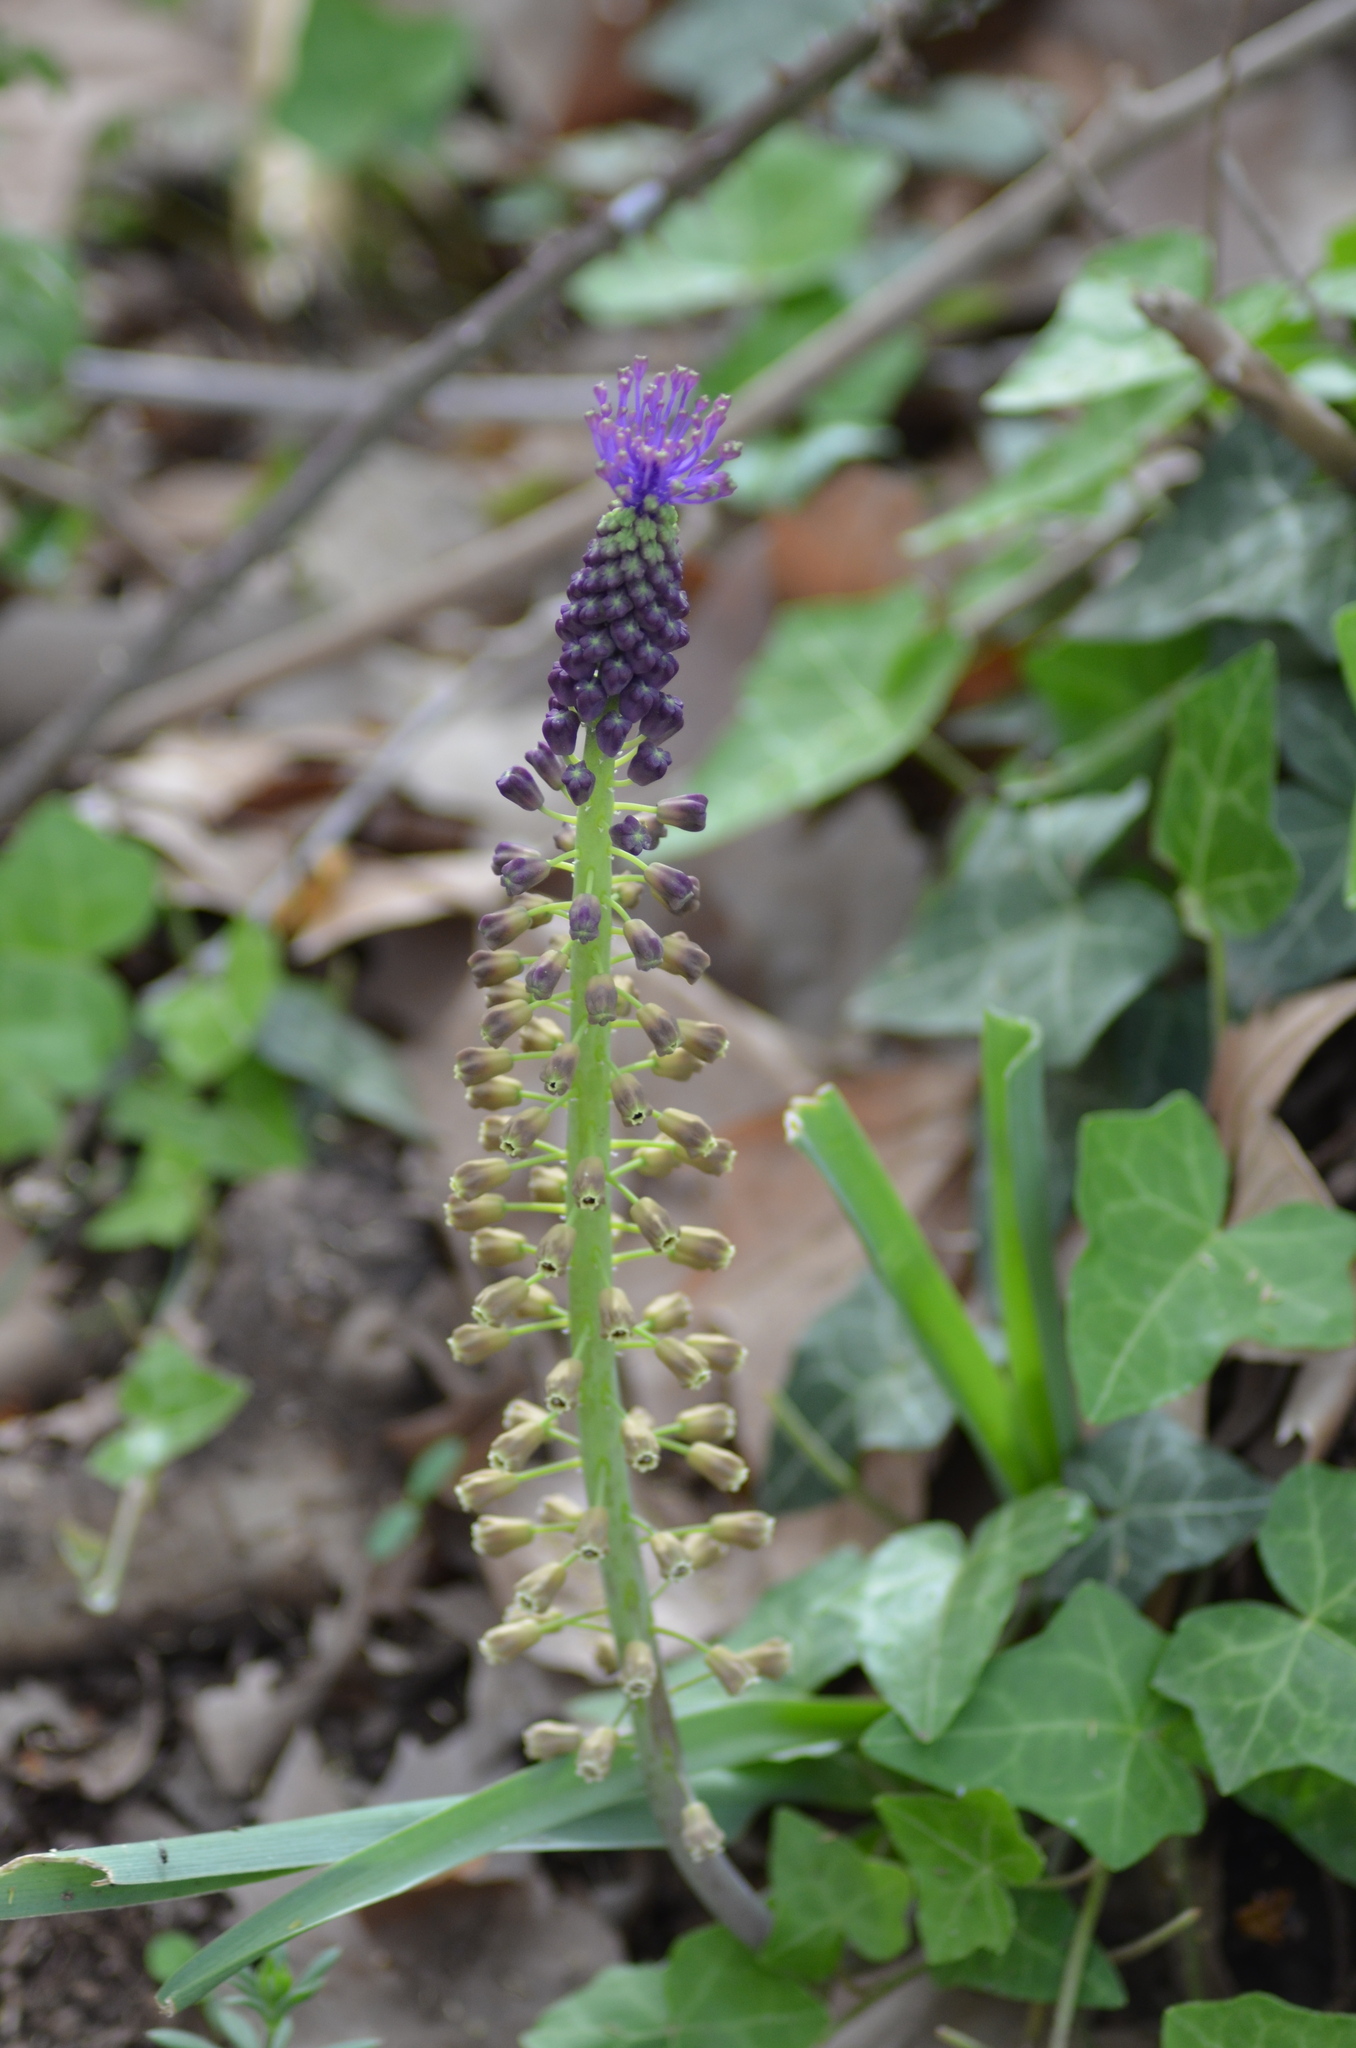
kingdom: Plantae
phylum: Tracheophyta
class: Liliopsida
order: Asparagales
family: Asparagaceae
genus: Muscari
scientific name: Muscari comosum
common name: Tassel hyacinth
